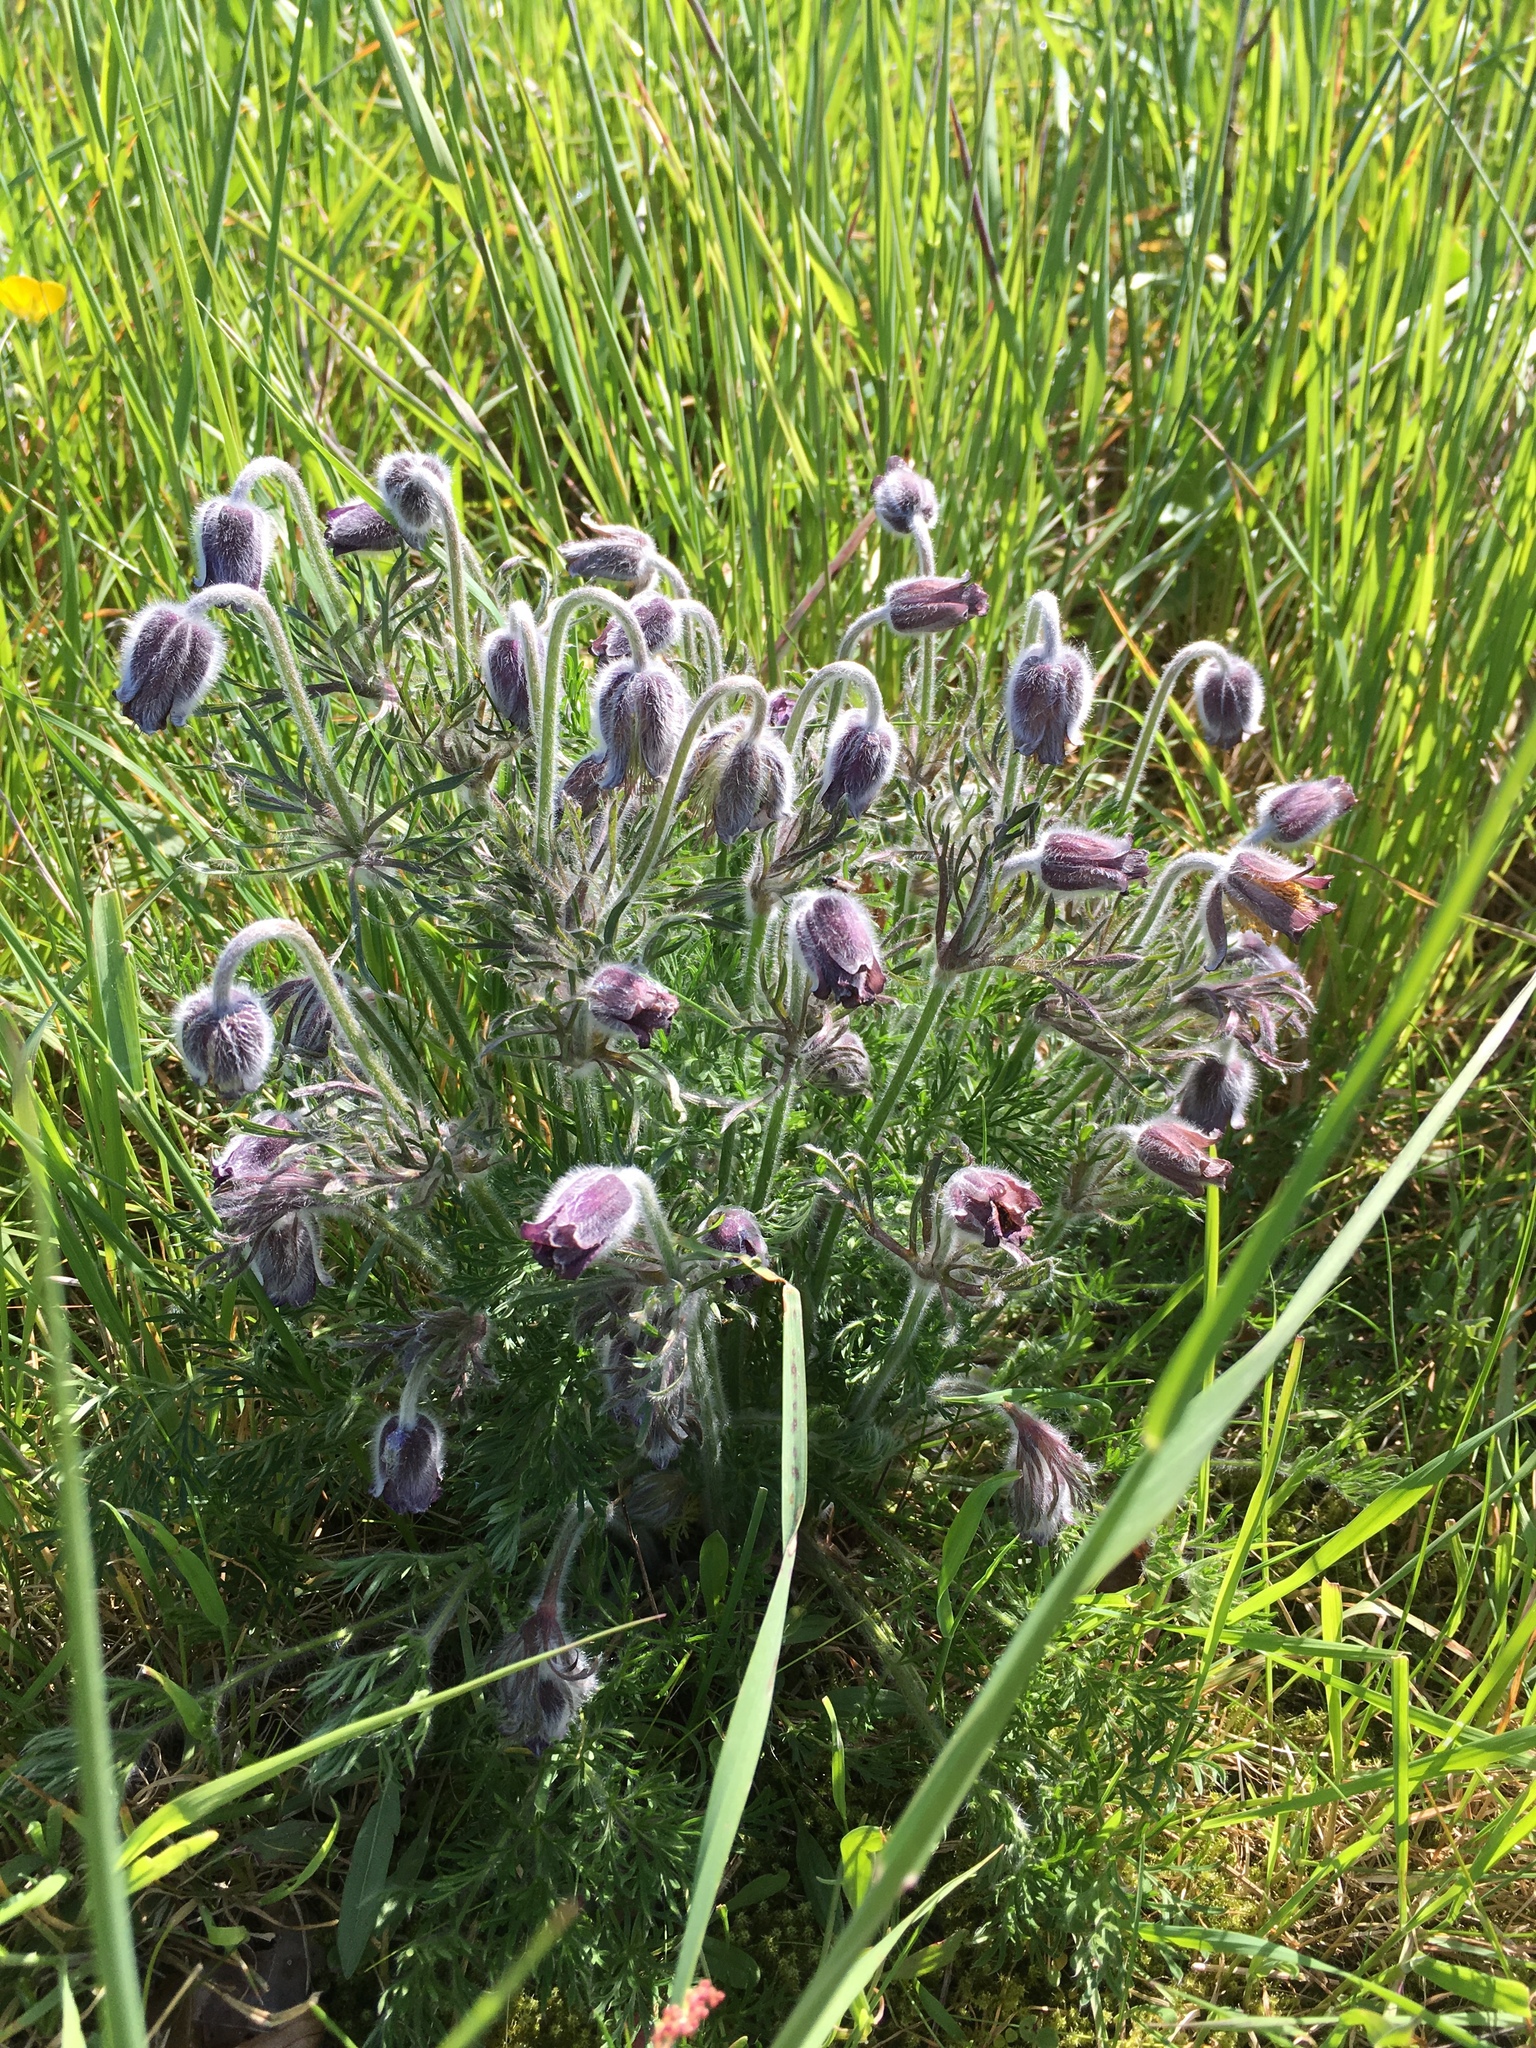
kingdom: Plantae
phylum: Tracheophyta
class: Magnoliopsida
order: Ranunculales
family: Ranunculaceae
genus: Pulsatilla
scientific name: Pulsatilla pratensis
